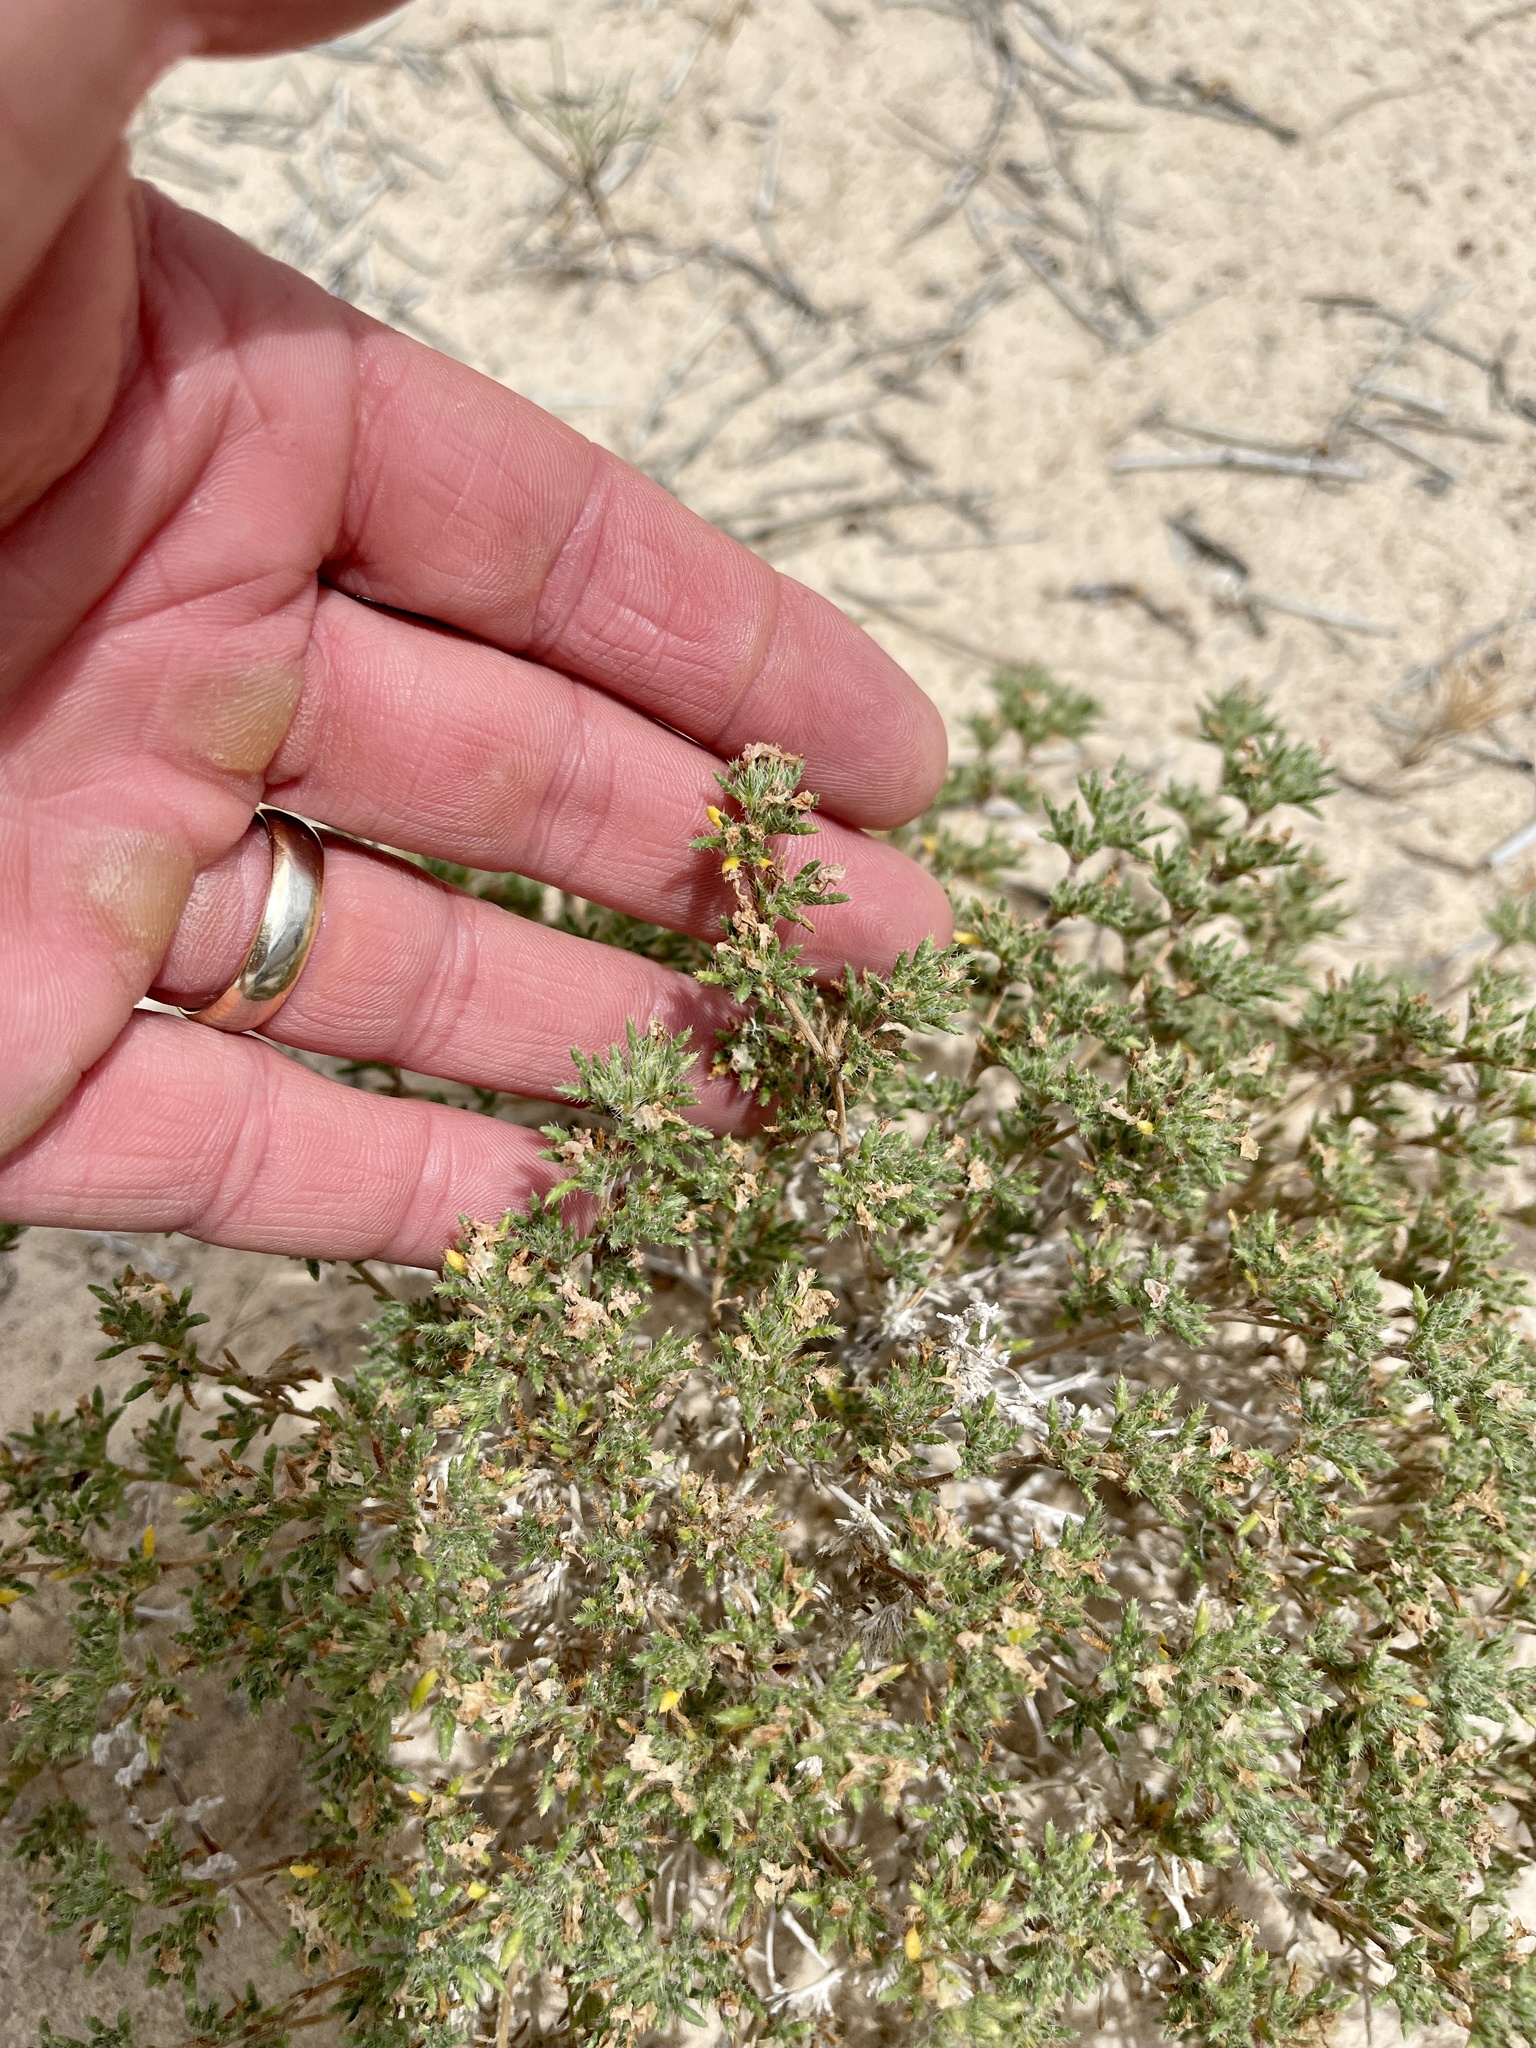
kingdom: Plantae
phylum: Tracheophyta
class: Magnoliopsida
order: Boraginales
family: Ehretiaceae
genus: Tiquilia
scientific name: Tiquilia hispidissima
